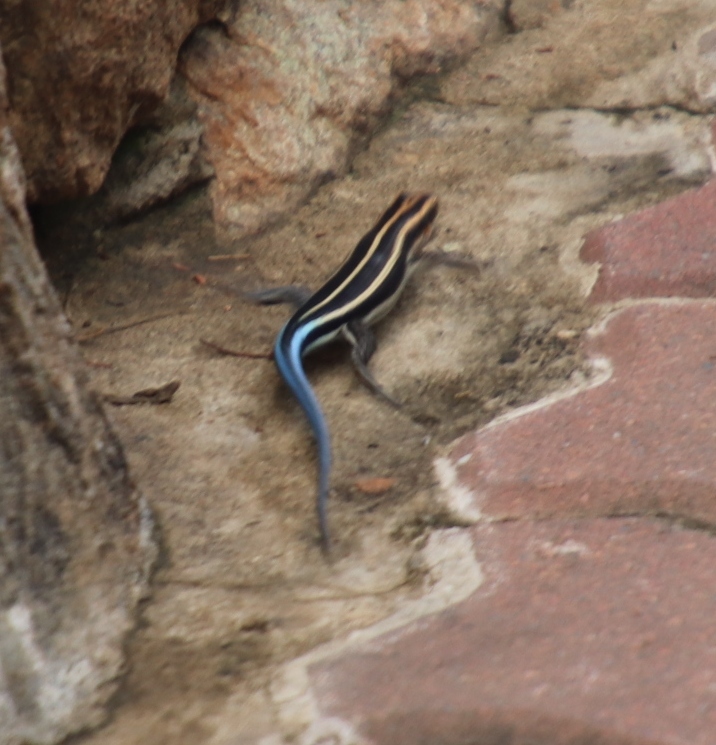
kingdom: Animalia
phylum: Chordata
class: Squamata
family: Scincidae
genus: Trachylepis
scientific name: Trachylepis margaritifera
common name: Rainbow skink
